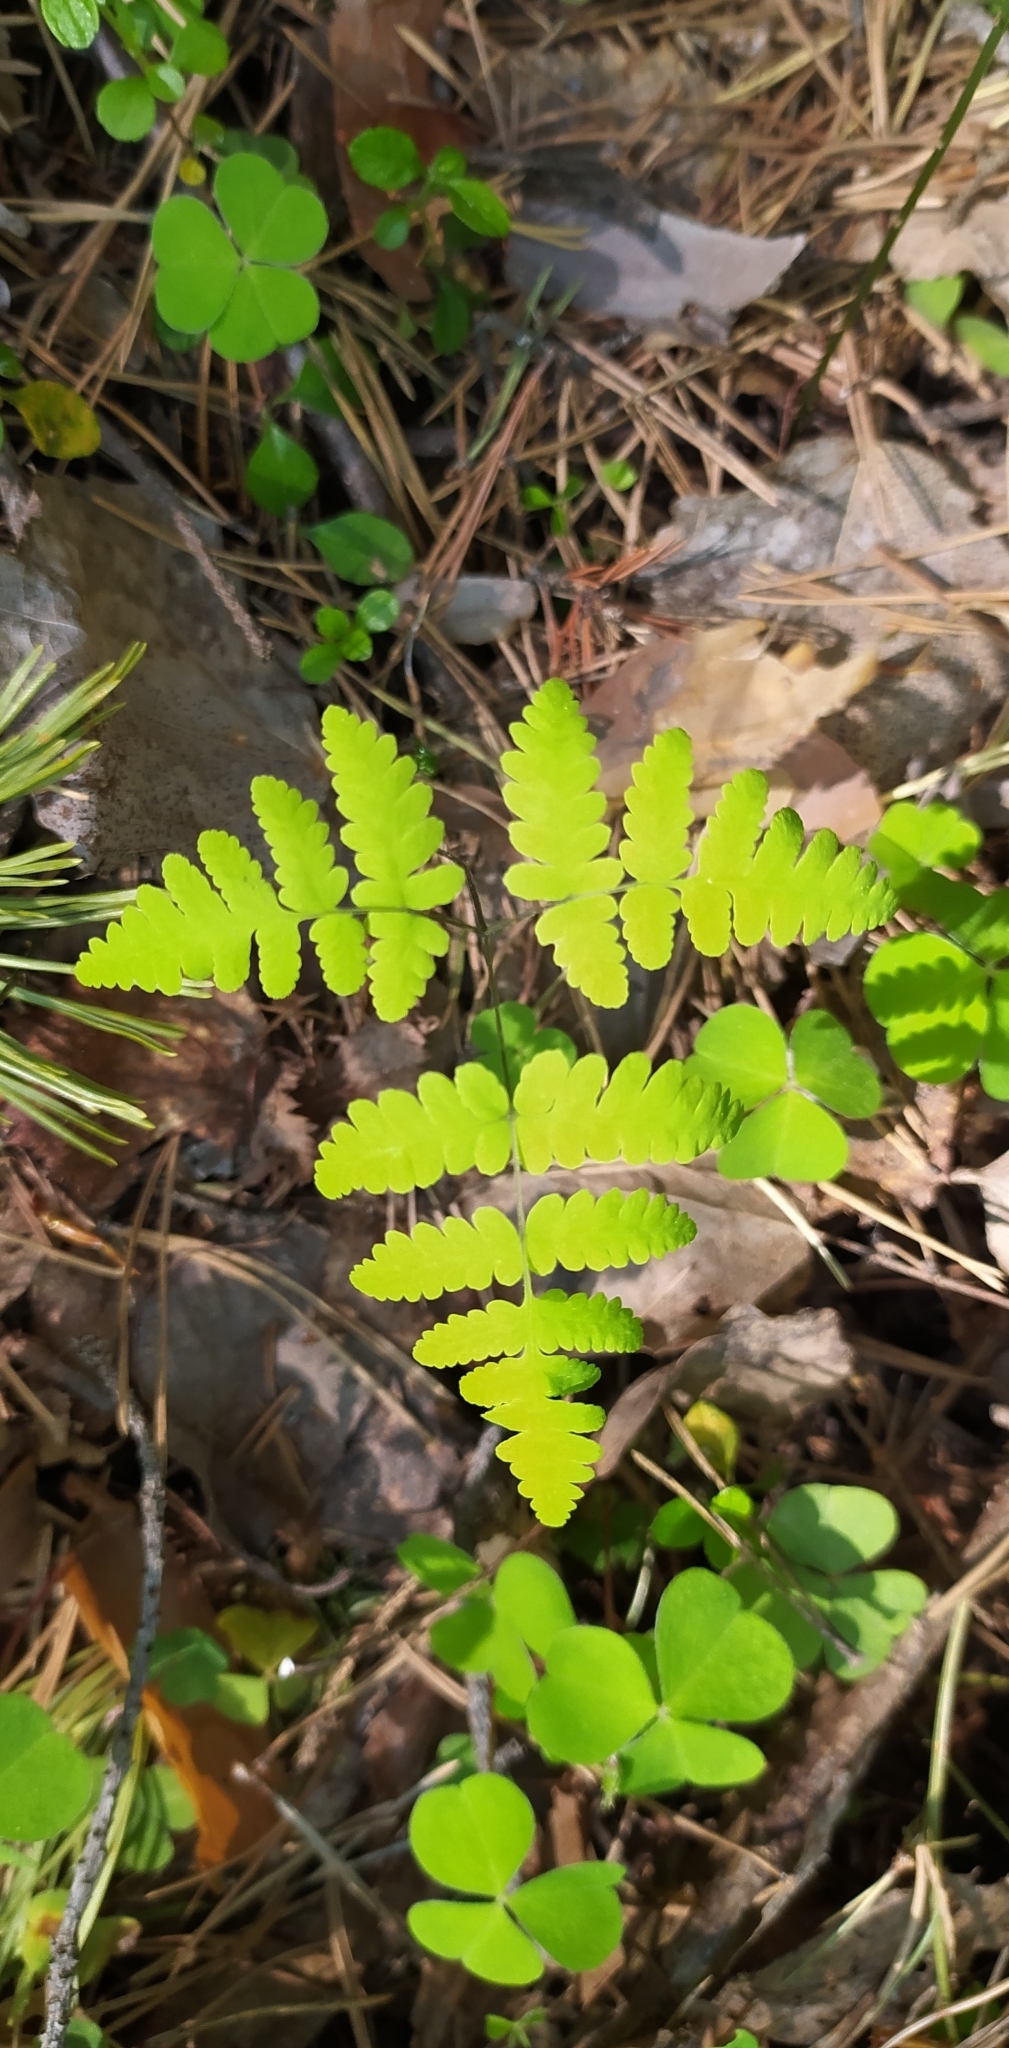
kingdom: Plantae
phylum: Tracheophyta
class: Polypodiopsida
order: Polypodiales
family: Cystopteridaceae
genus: Gymnocarpium
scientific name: Gymnocarpium dryopteris
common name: Oak fern
